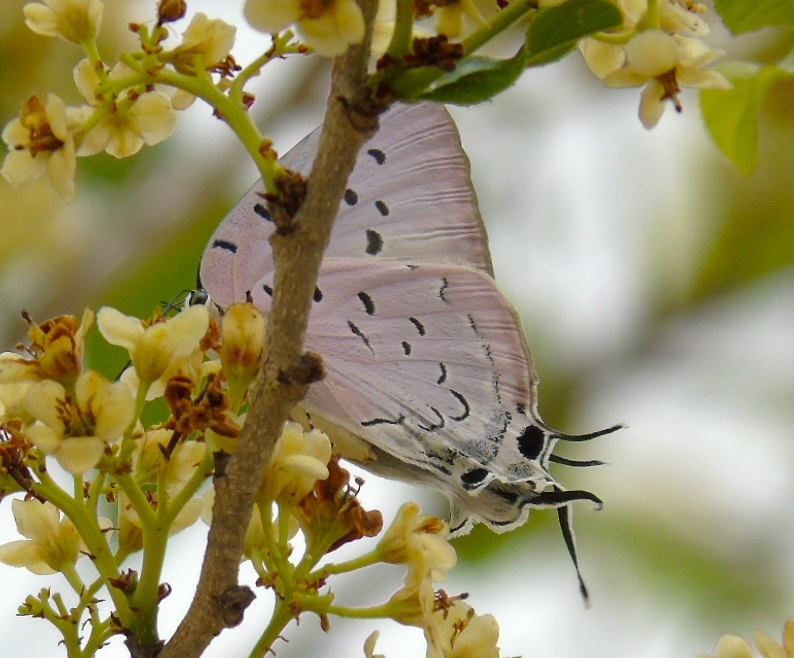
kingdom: Animalia
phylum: Arthropoda
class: Insecta
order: Lepidoptera
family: Lycaenidae
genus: Pseudolycaena
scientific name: Pseudolycaena damo
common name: Sky-blue hairstreak
